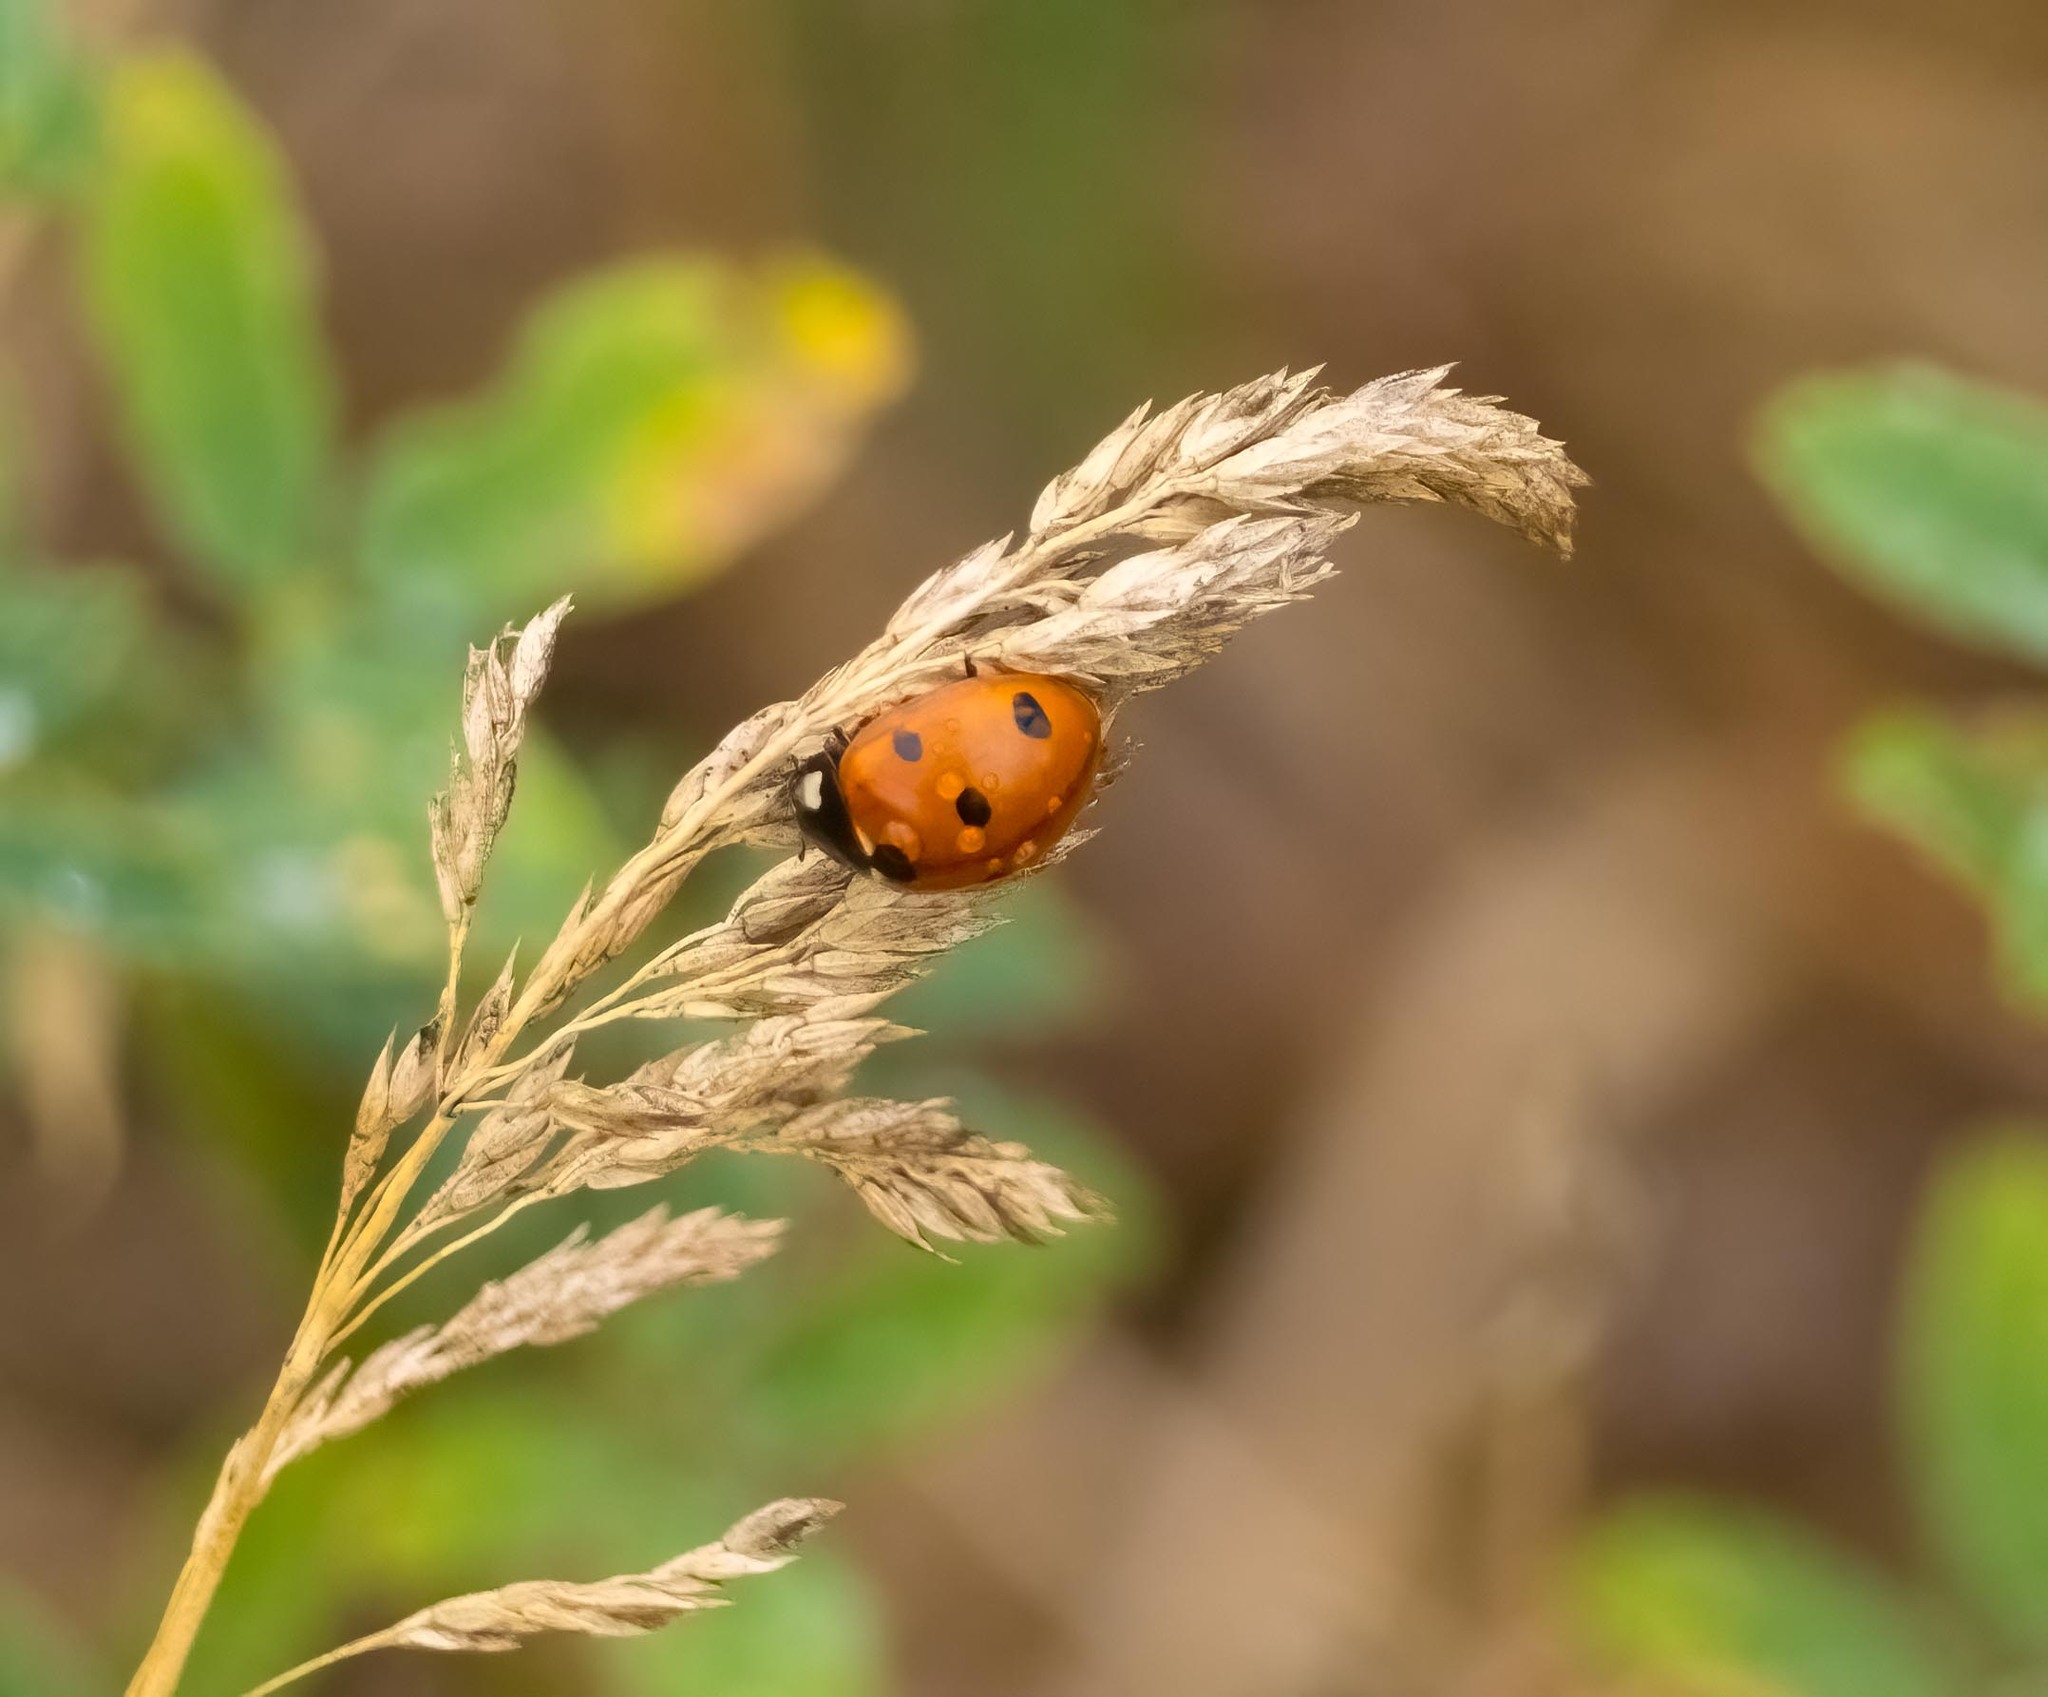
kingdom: Animalia
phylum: Arthropoda
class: Insecta
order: Coleoptera
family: Coccinellidae
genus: Coccinella
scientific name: Coccinella septempunctata
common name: Sevenspotted lady beetle
